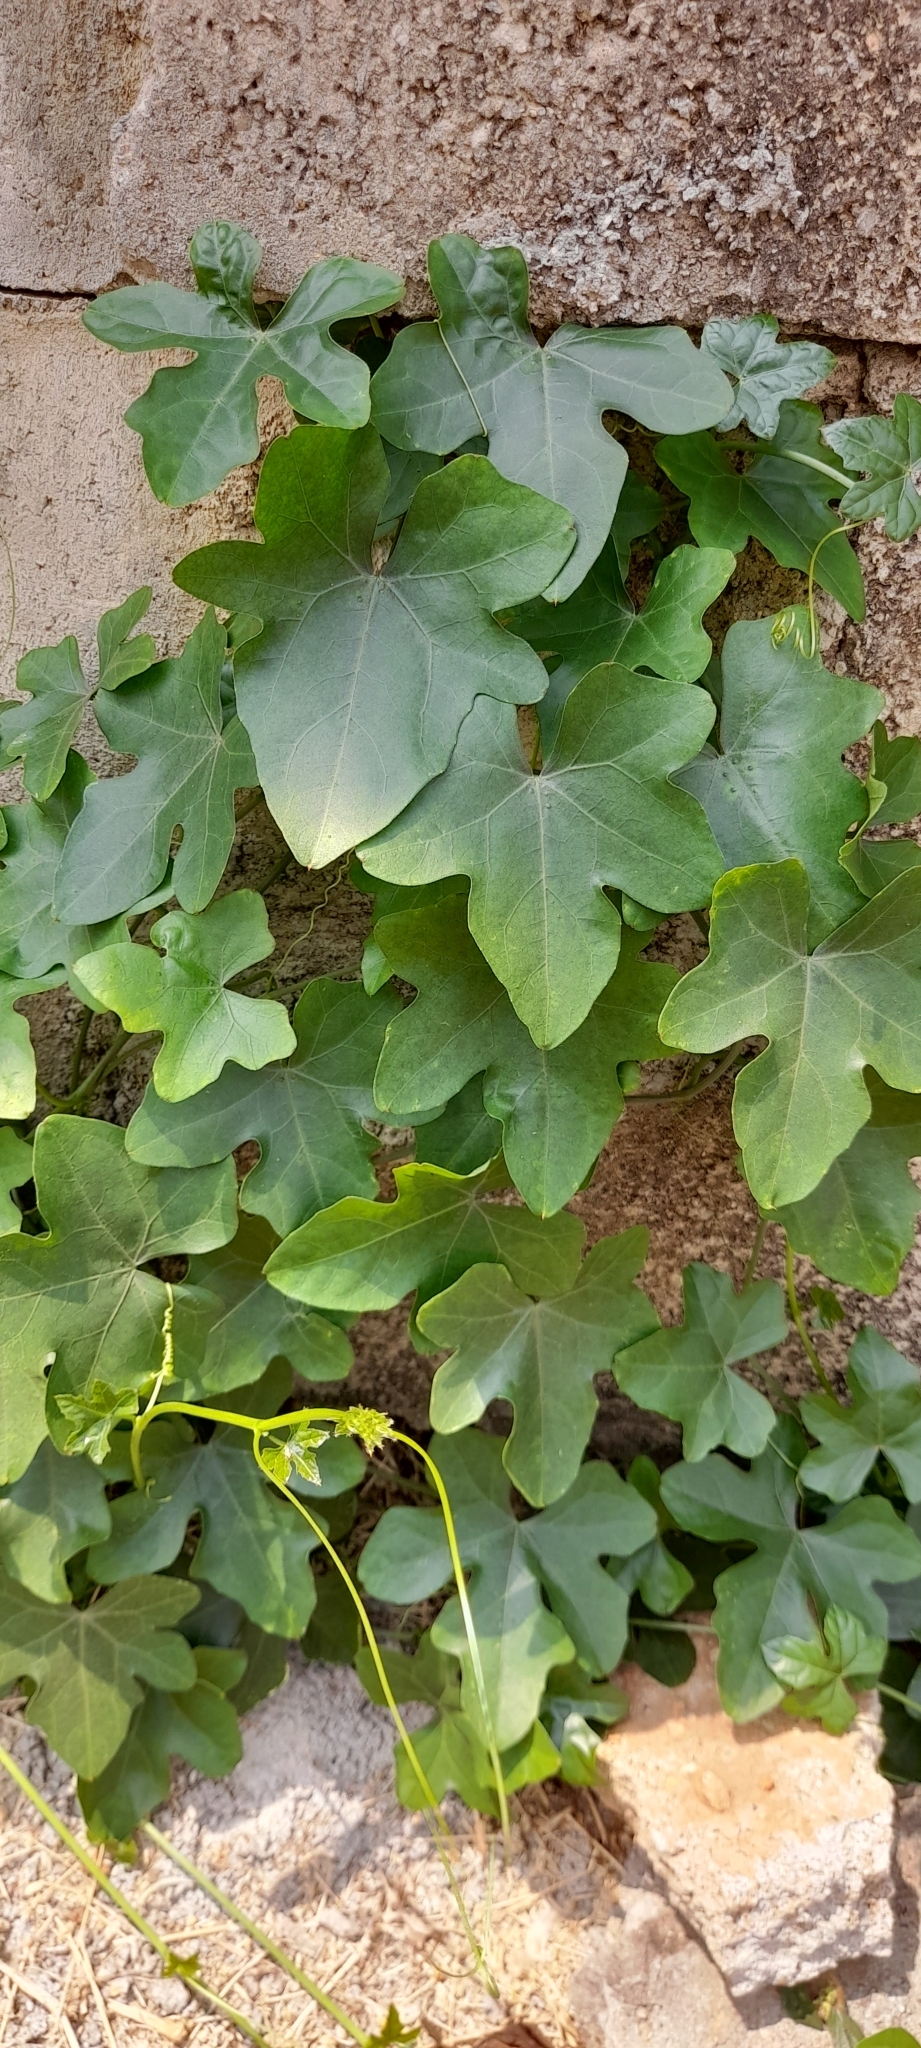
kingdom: Plantae
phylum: Tracheophyta
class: Magnoliopsida
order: Cucurbitales
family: Cucurbitaceae
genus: Coccinia
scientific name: Coccinia grandis
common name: Ivy gourd
